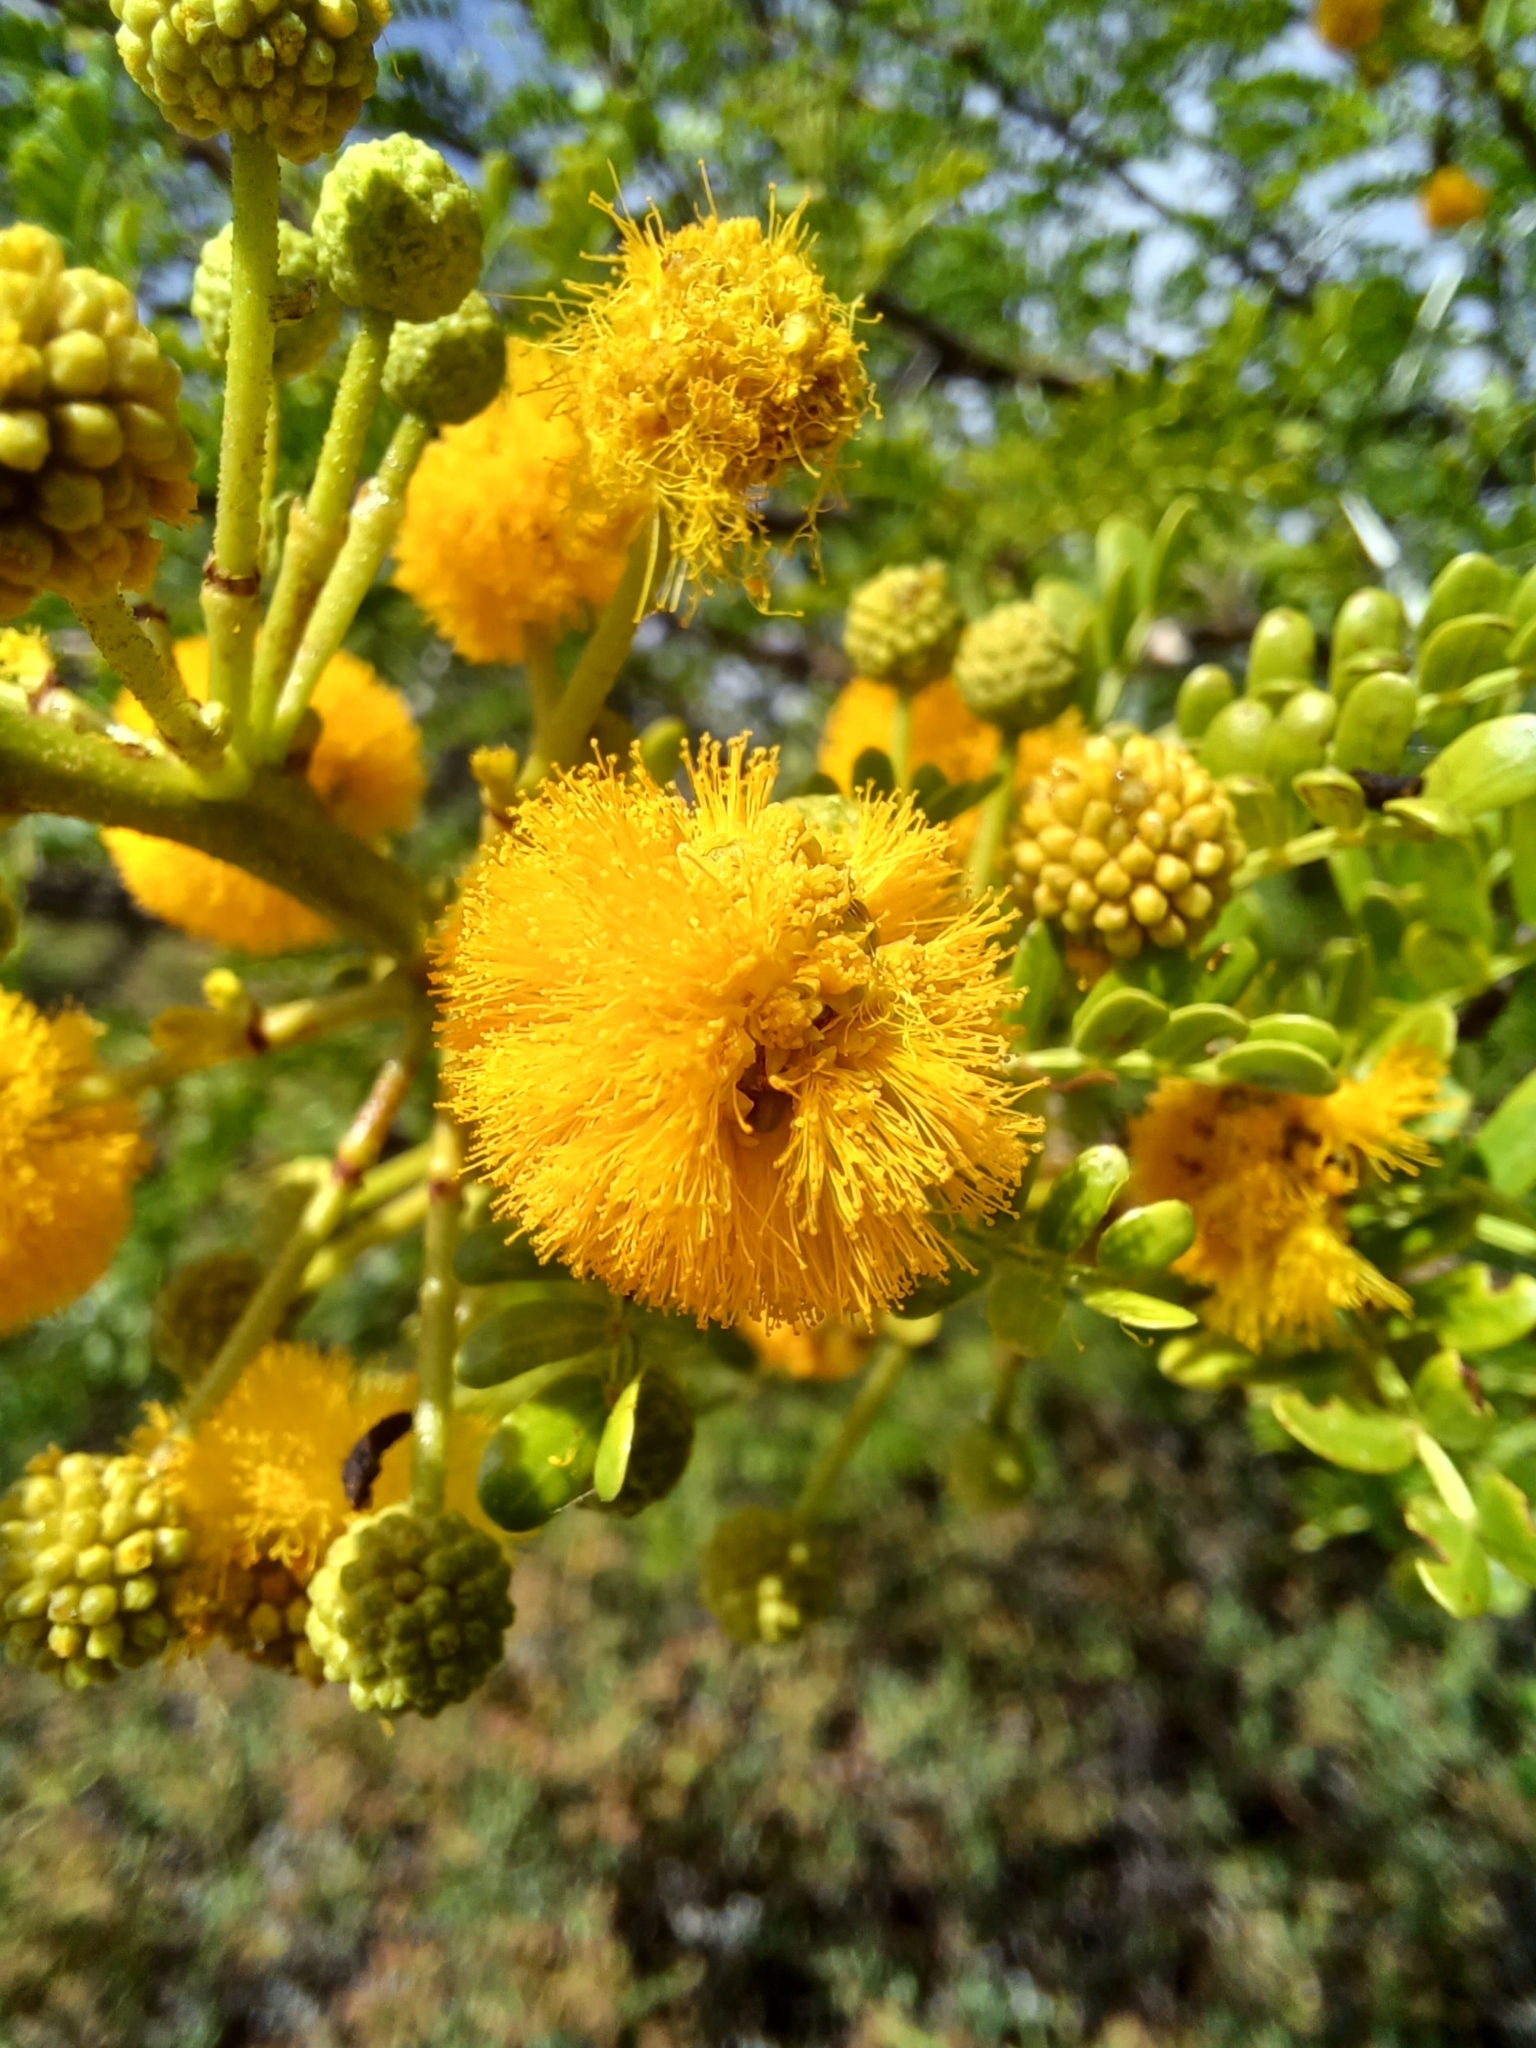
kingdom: Plantae
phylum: Tracheophyta
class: Magnoliopsida
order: Fabales
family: Fabaceae
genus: Vachellia
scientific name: Vachellia karroo
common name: Sweet thorn
